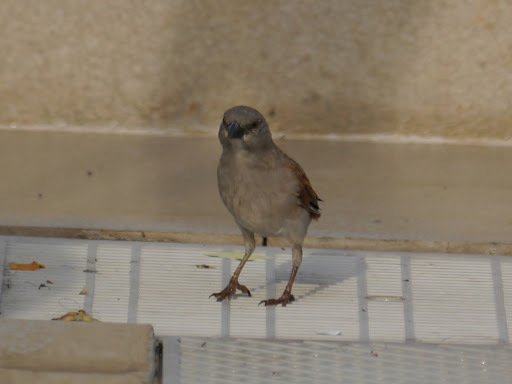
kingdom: Animalia
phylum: Chordata
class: Aves
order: Passeriformes
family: Passeridae
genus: Passer
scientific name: Passer griseus
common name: Northern grey-headed sparrow
